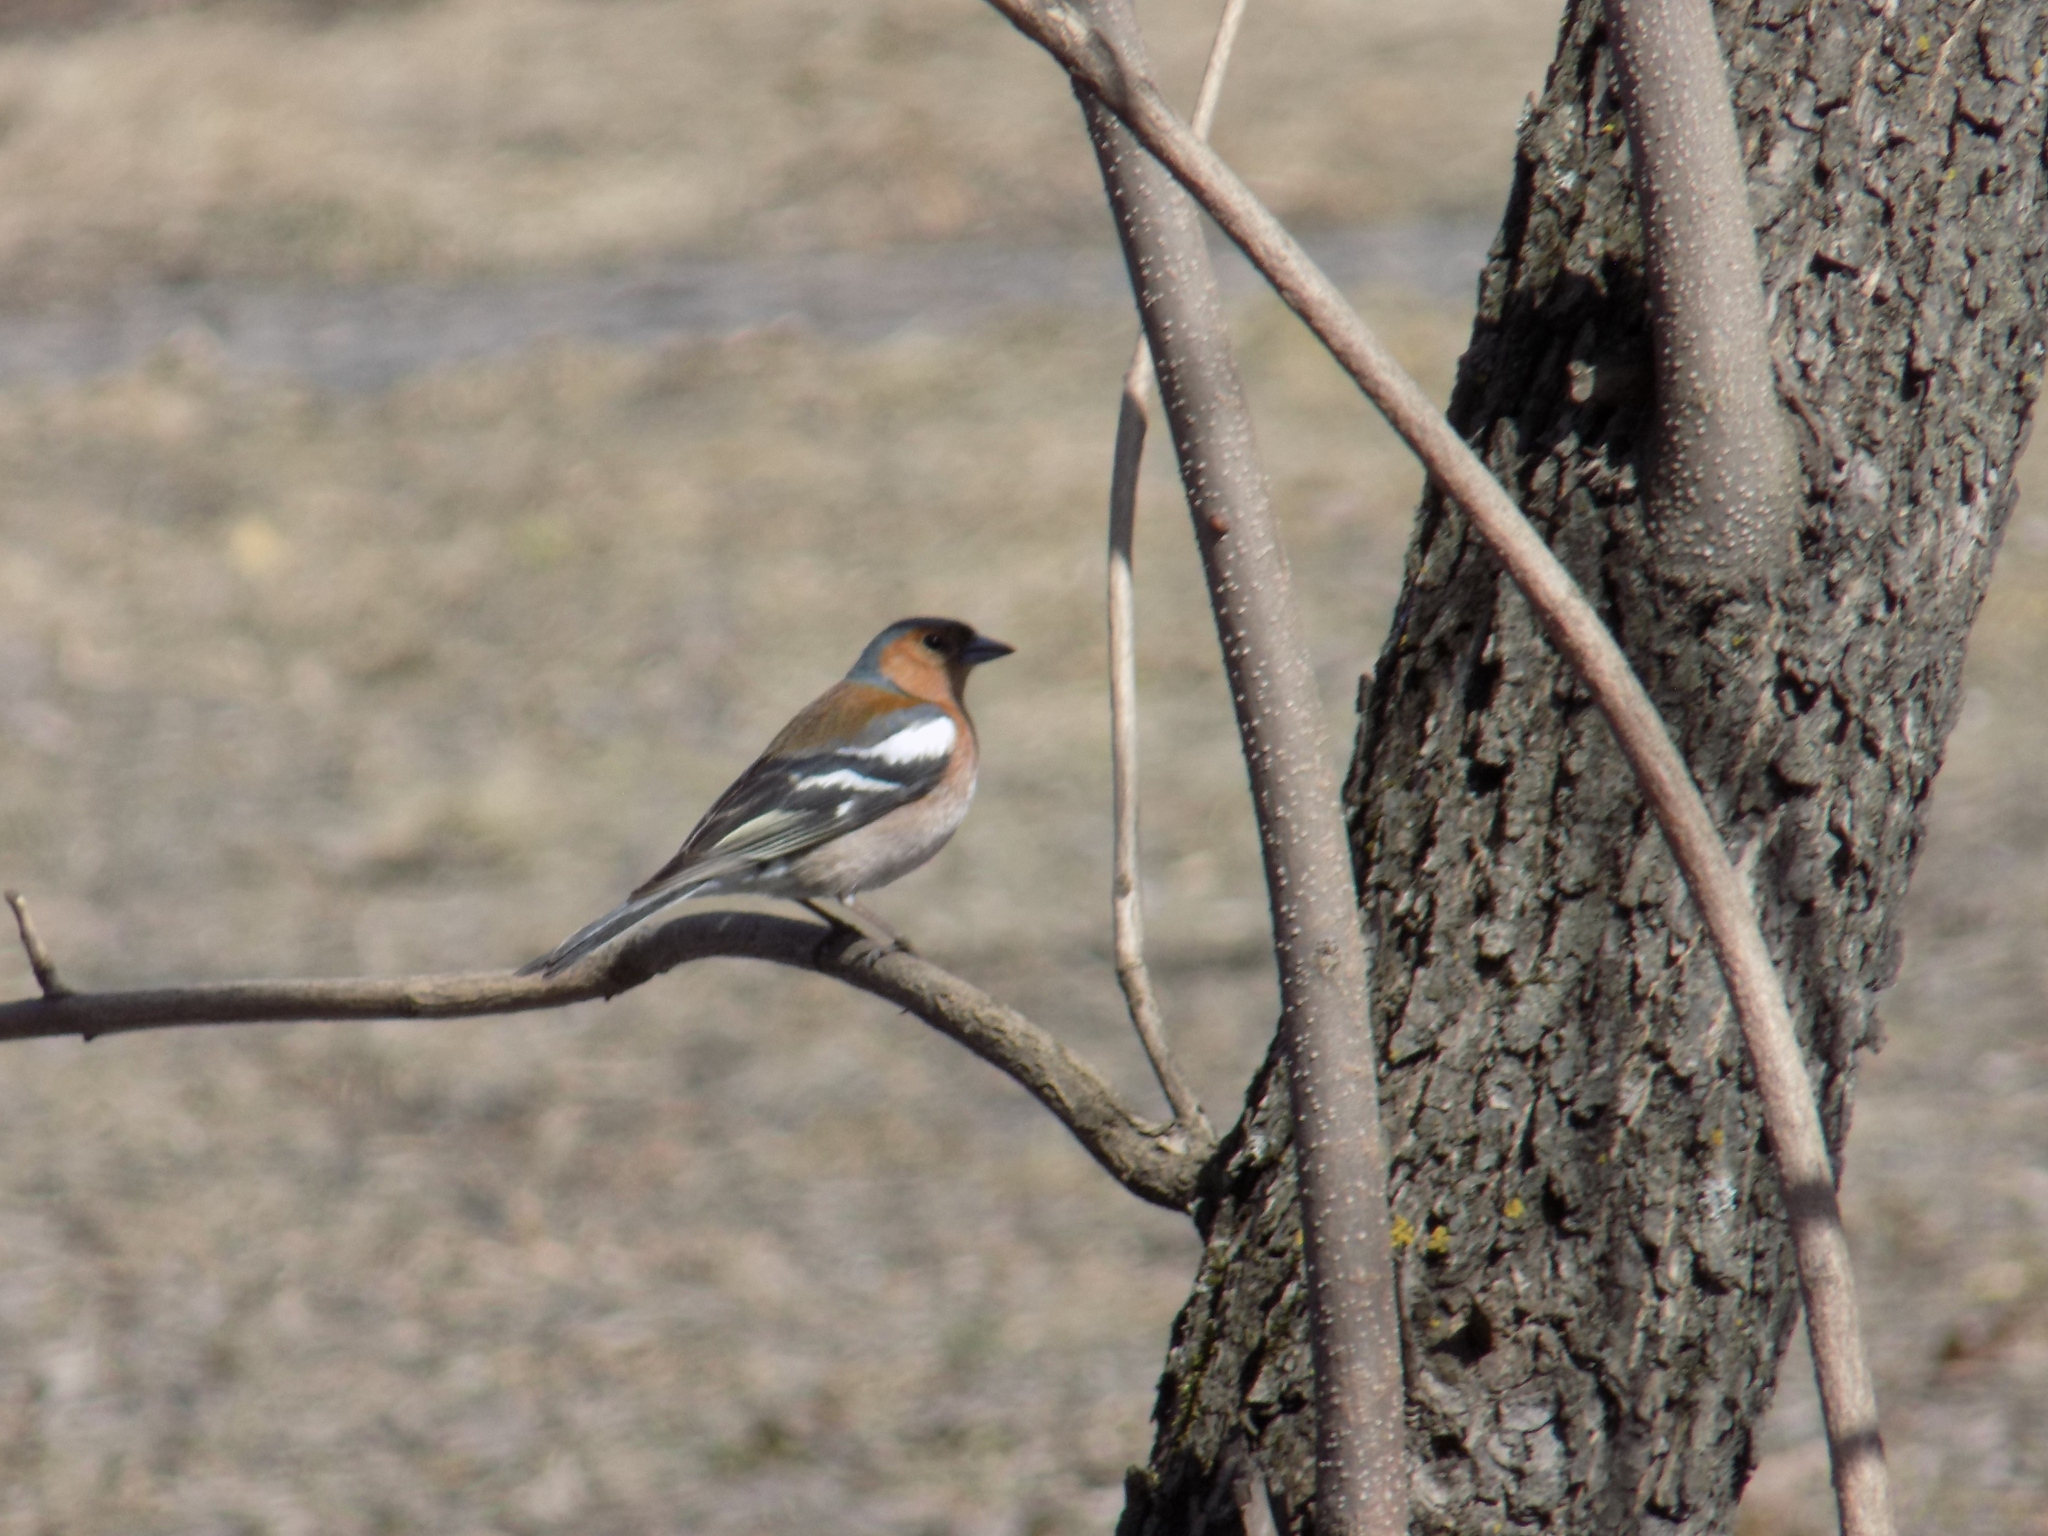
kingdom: Animalia
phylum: Chordata
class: Aves
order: Passeriformes
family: Fringillidae
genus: Fringilla
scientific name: Fringilla coelebs
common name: Common chaffinch
